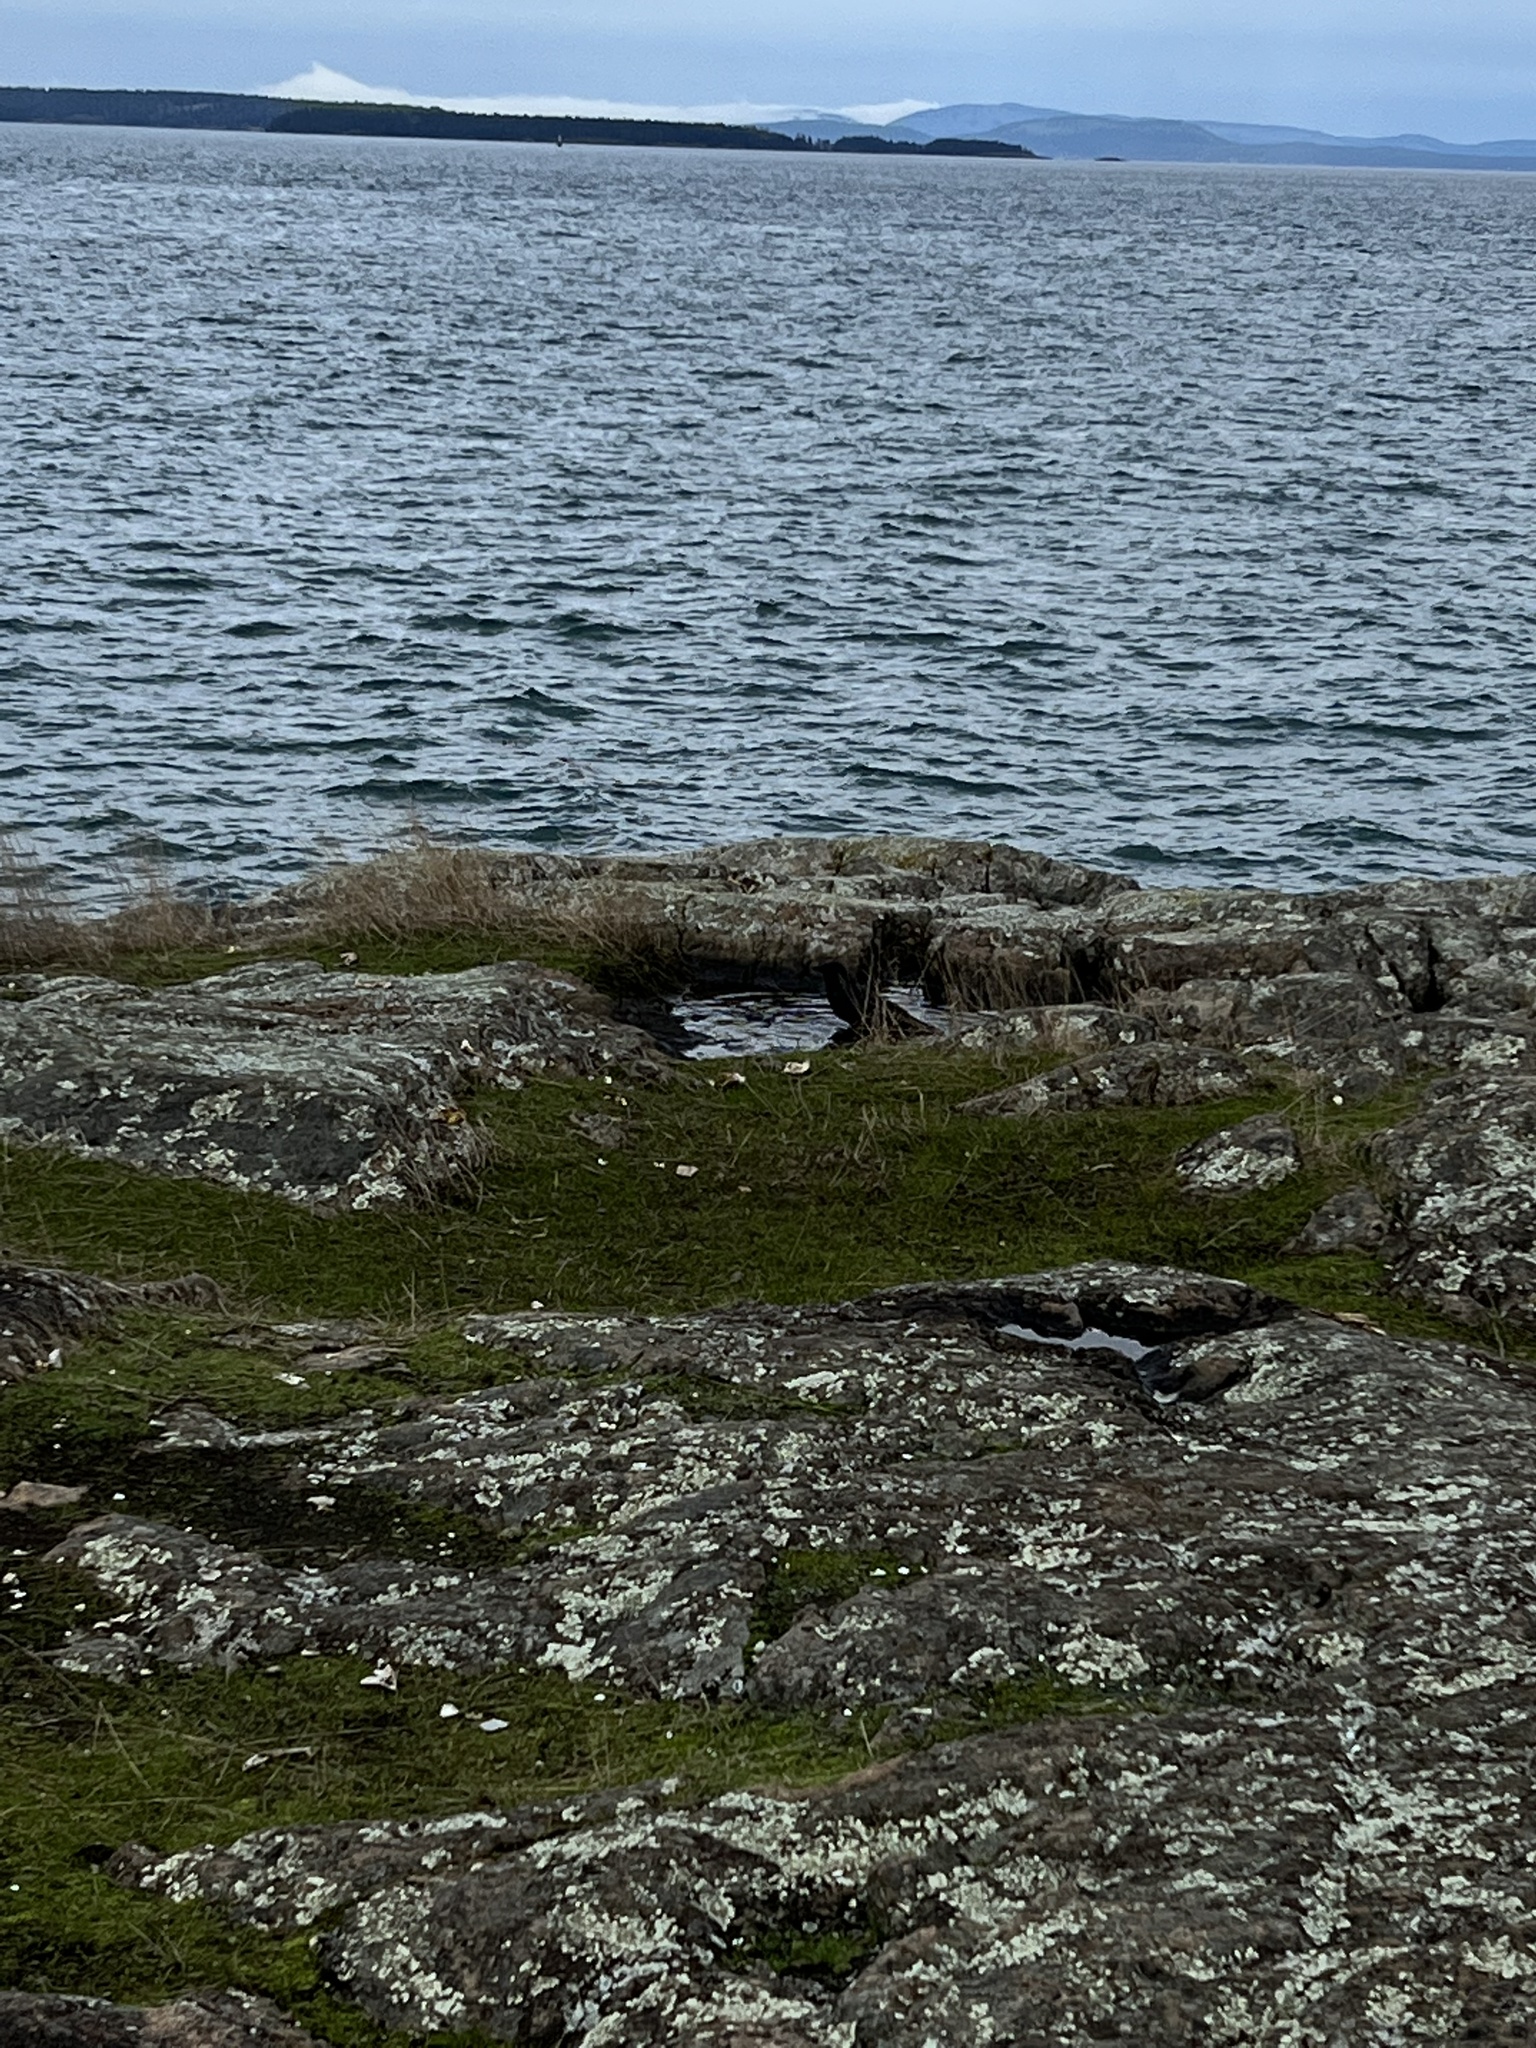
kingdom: Animalia
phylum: Chordata
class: Aves
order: Passeriformes
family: Corvidae
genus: Corvus
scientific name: Corvus brachyrhynchos
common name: American crow
